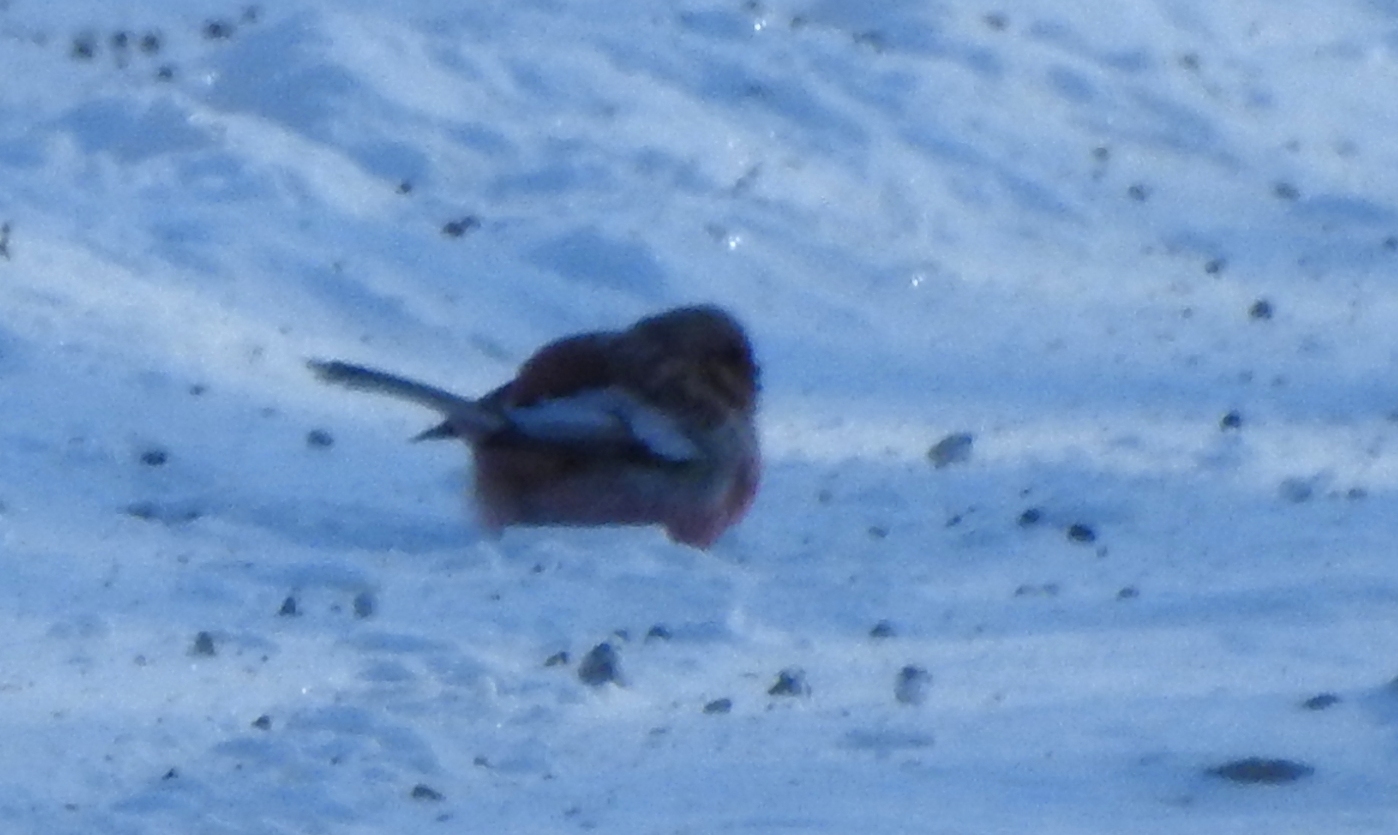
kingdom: Animalia
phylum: Chordata
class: Aves
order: Passeriformes
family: Fringillidae
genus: Carpodacus
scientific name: Carpodacus sibiricus
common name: Long-tailed rosefinch
